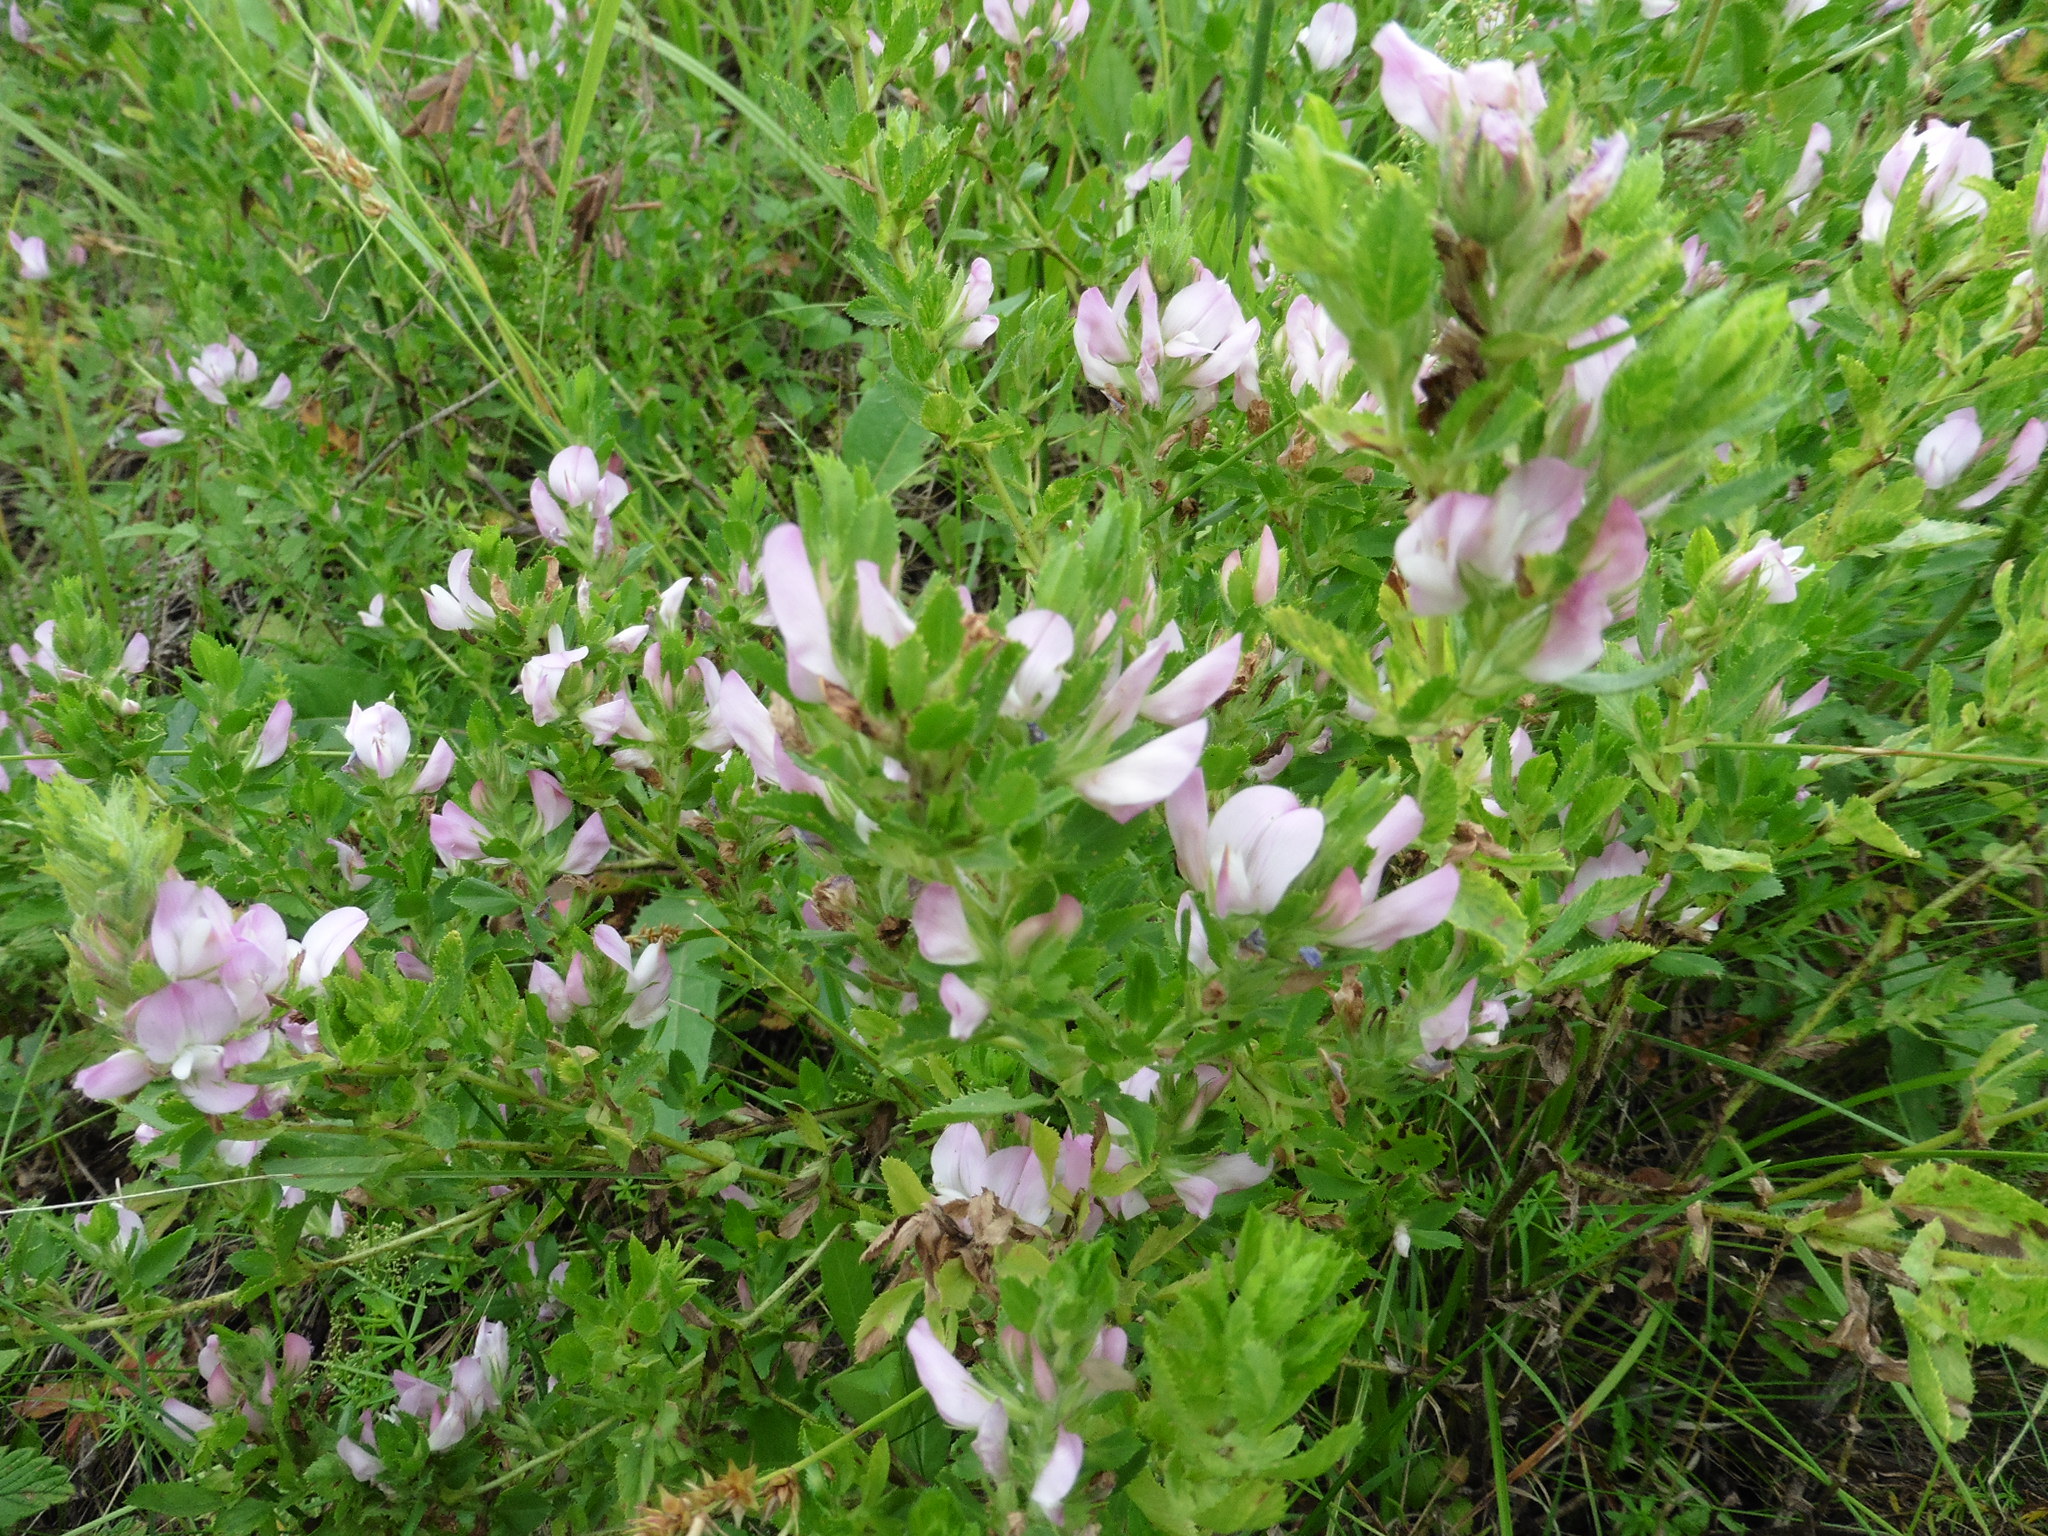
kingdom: Plantae
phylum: Tracheophyta
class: Magnoliopsida
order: Fabales
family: Fabaceae
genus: Ononis
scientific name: Ononis arvensis
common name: Field restharrow
